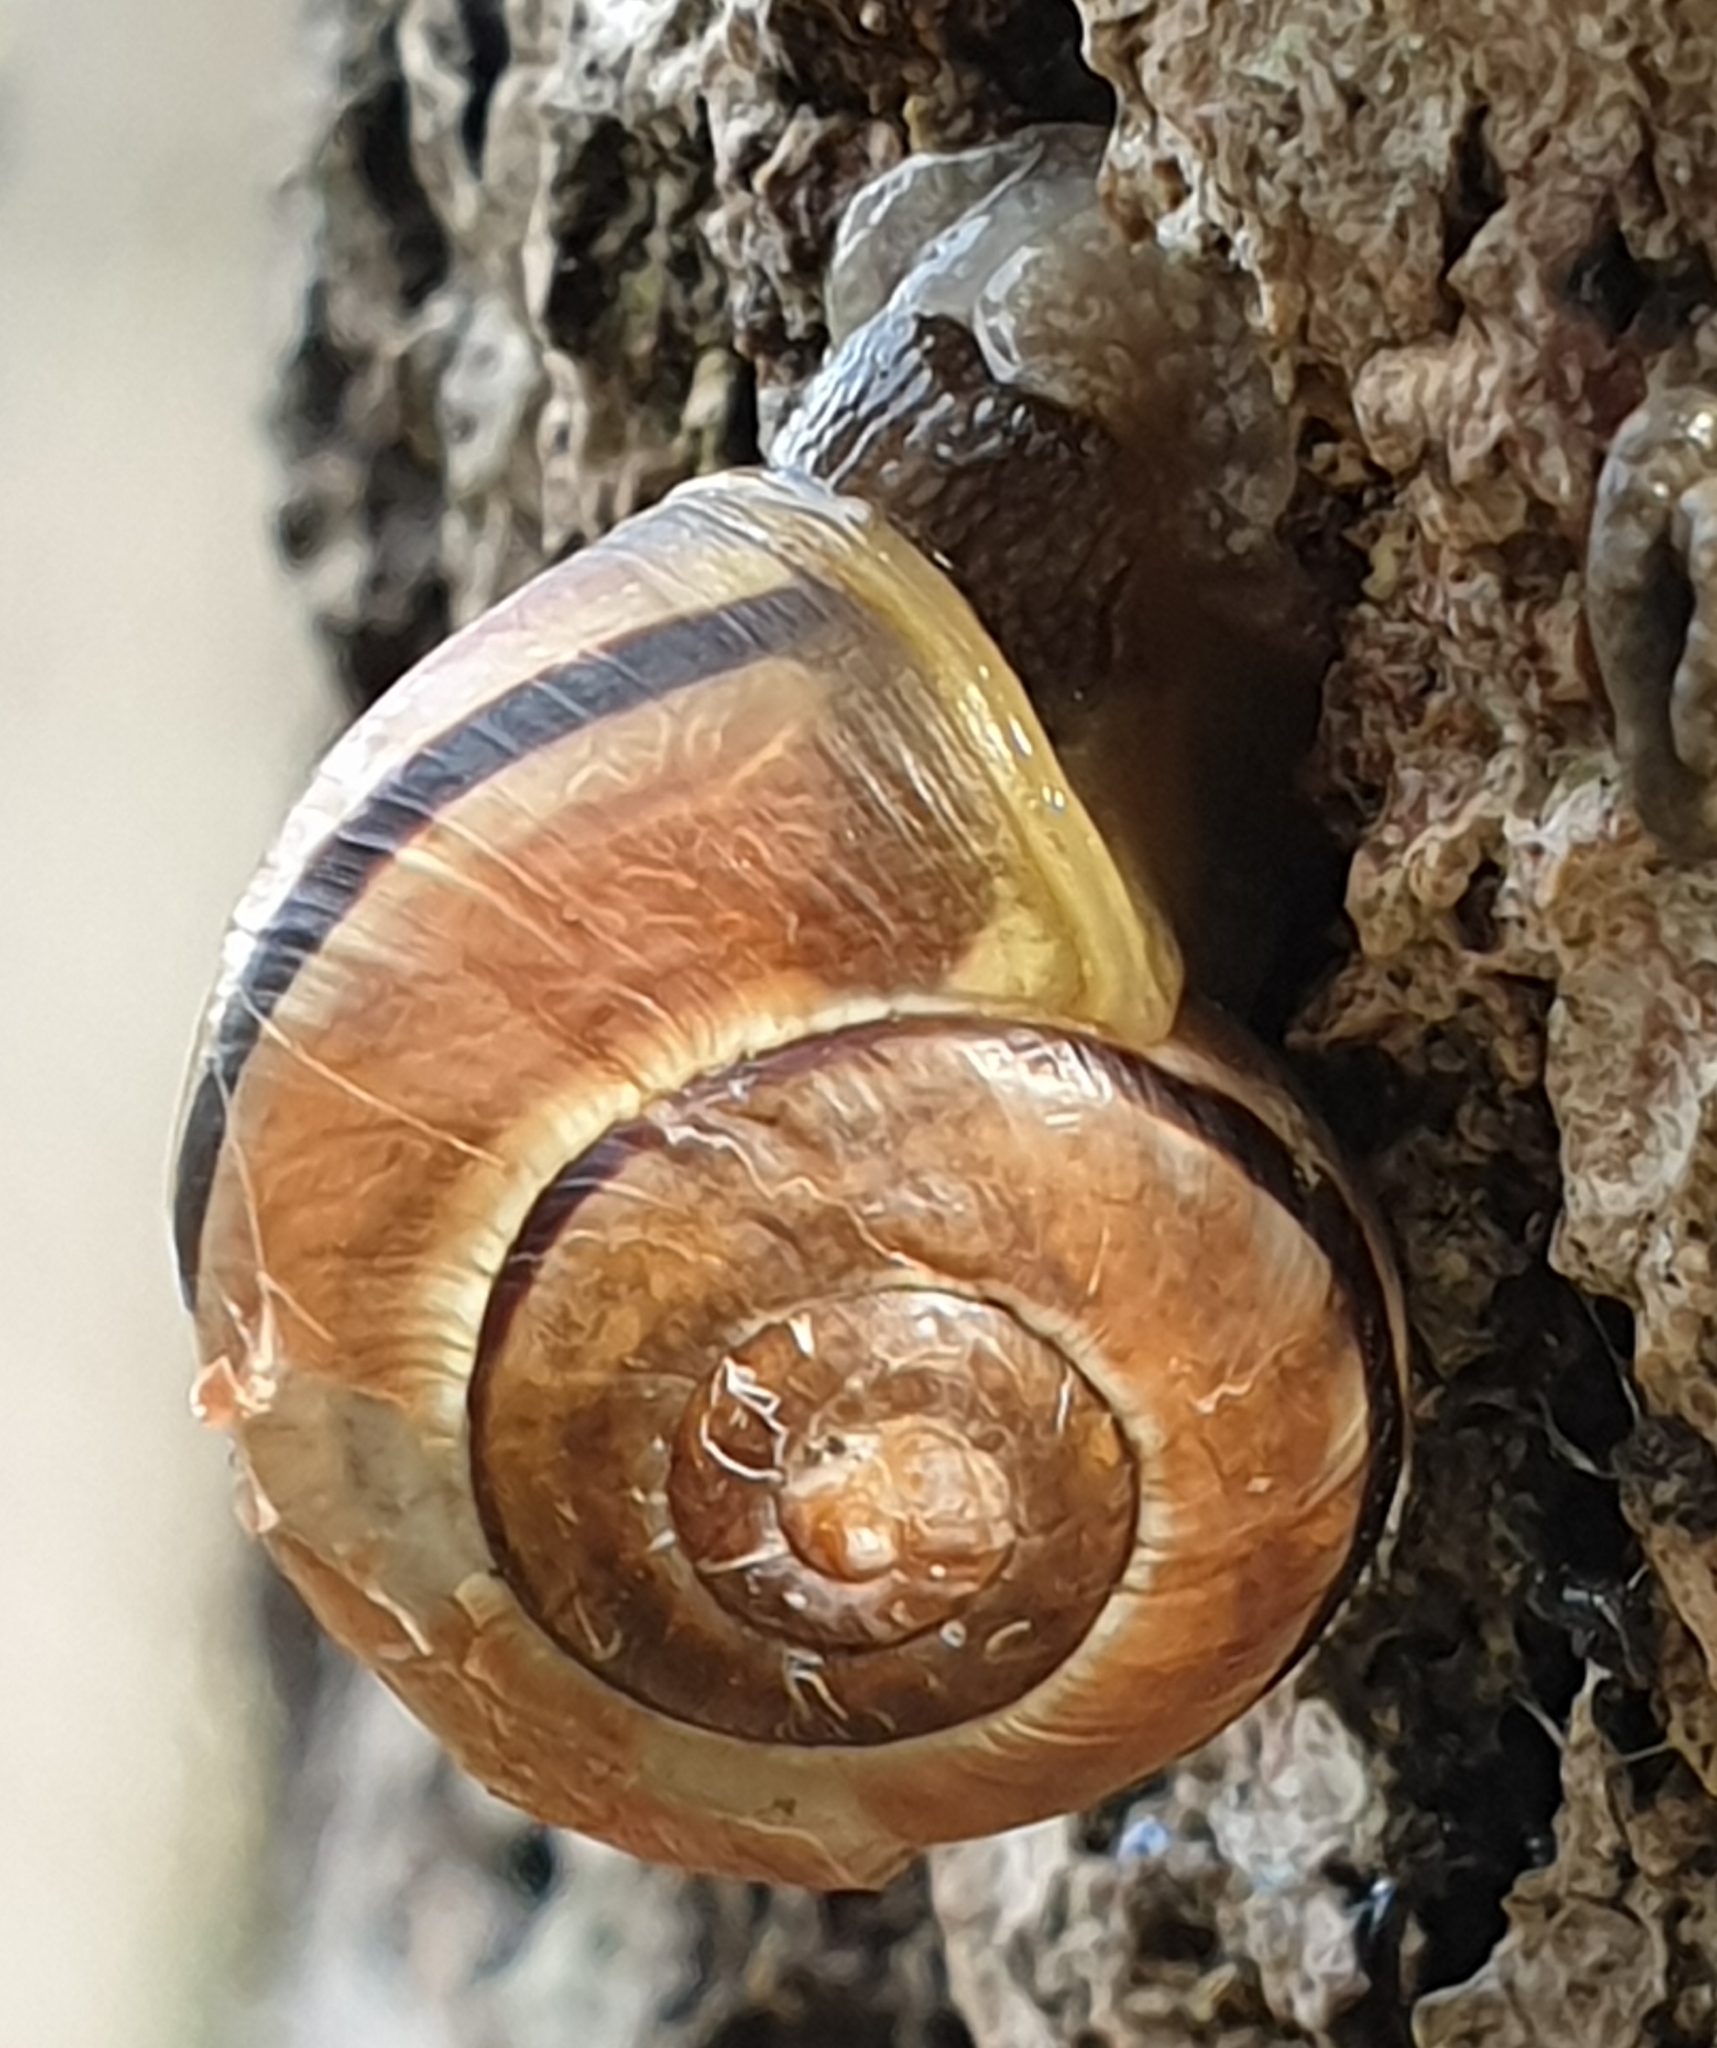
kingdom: Animalia
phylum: Mollusca
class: Gastropoda
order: Stylommatophora
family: Helicidae
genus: Cepaea
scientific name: Cepaea nemoralis
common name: Grovesnail
